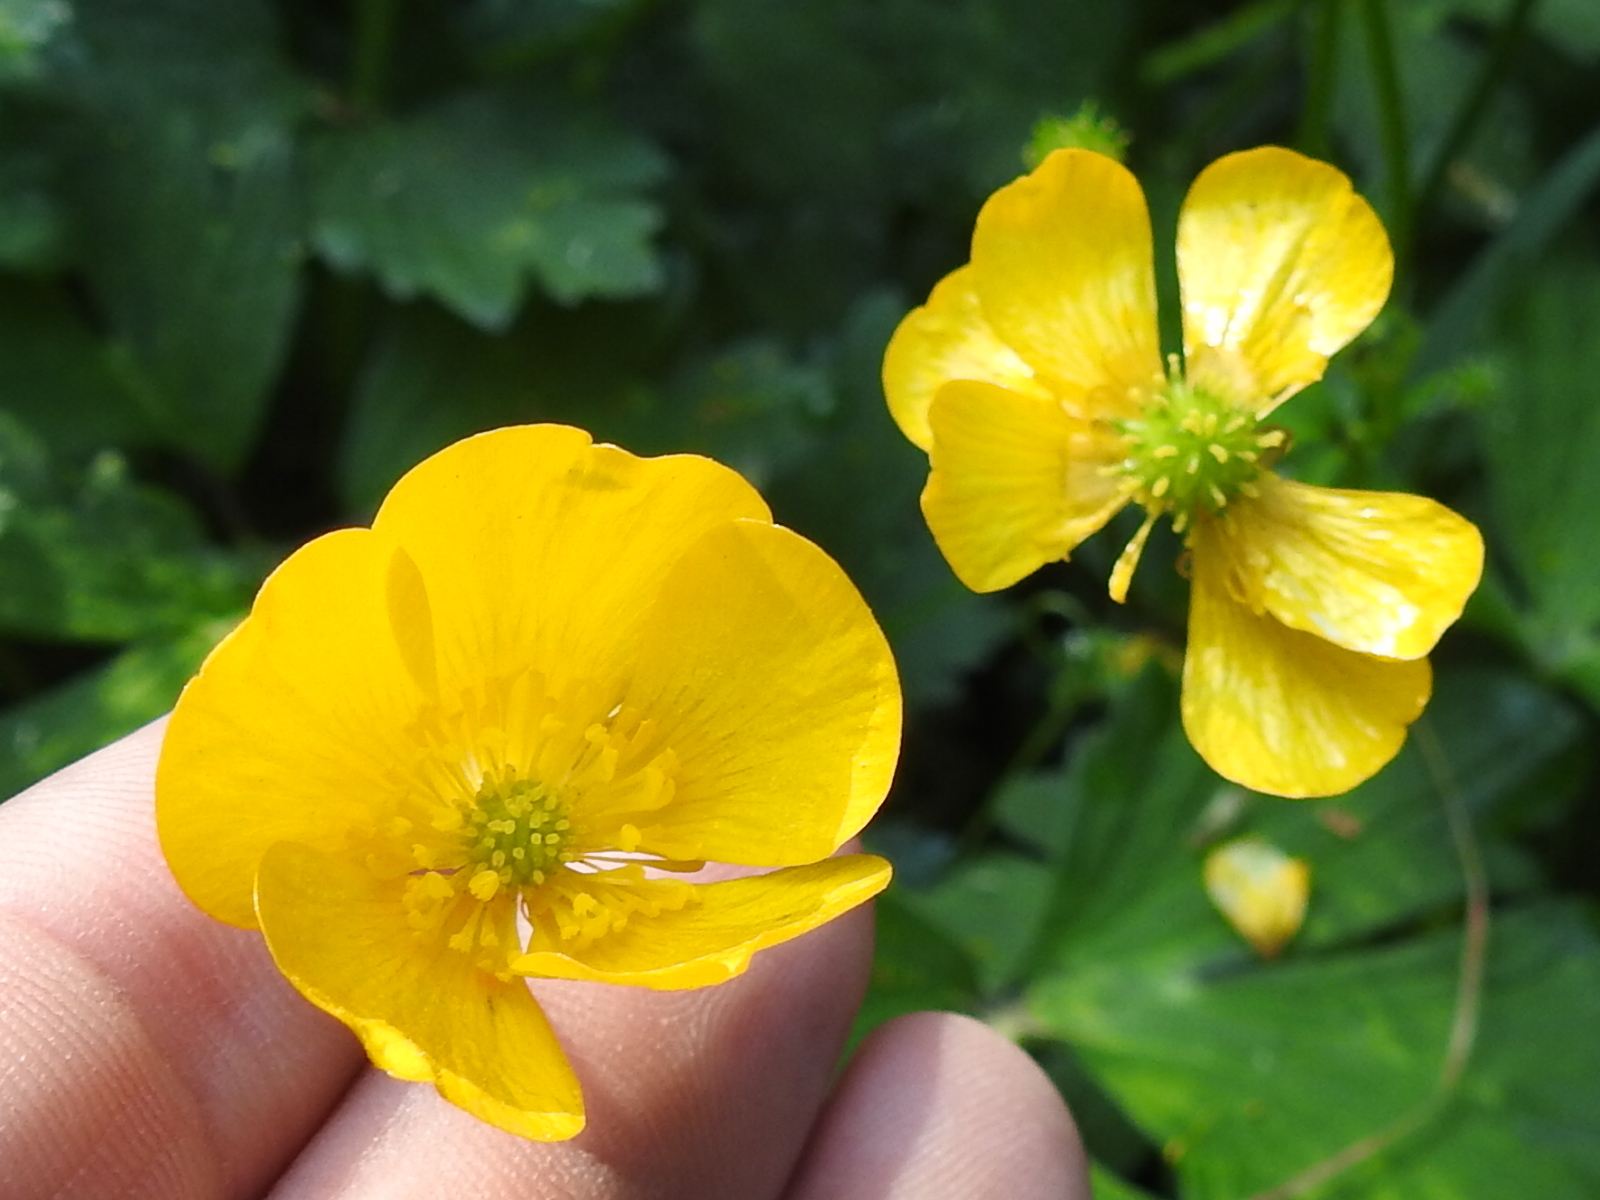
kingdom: Plantae
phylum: Tracheophyta
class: Magnoliopsida
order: Ranunculales
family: Ranunculaceae
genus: Ranunculus
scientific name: Ranunculus repens
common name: Creeping buttercup
